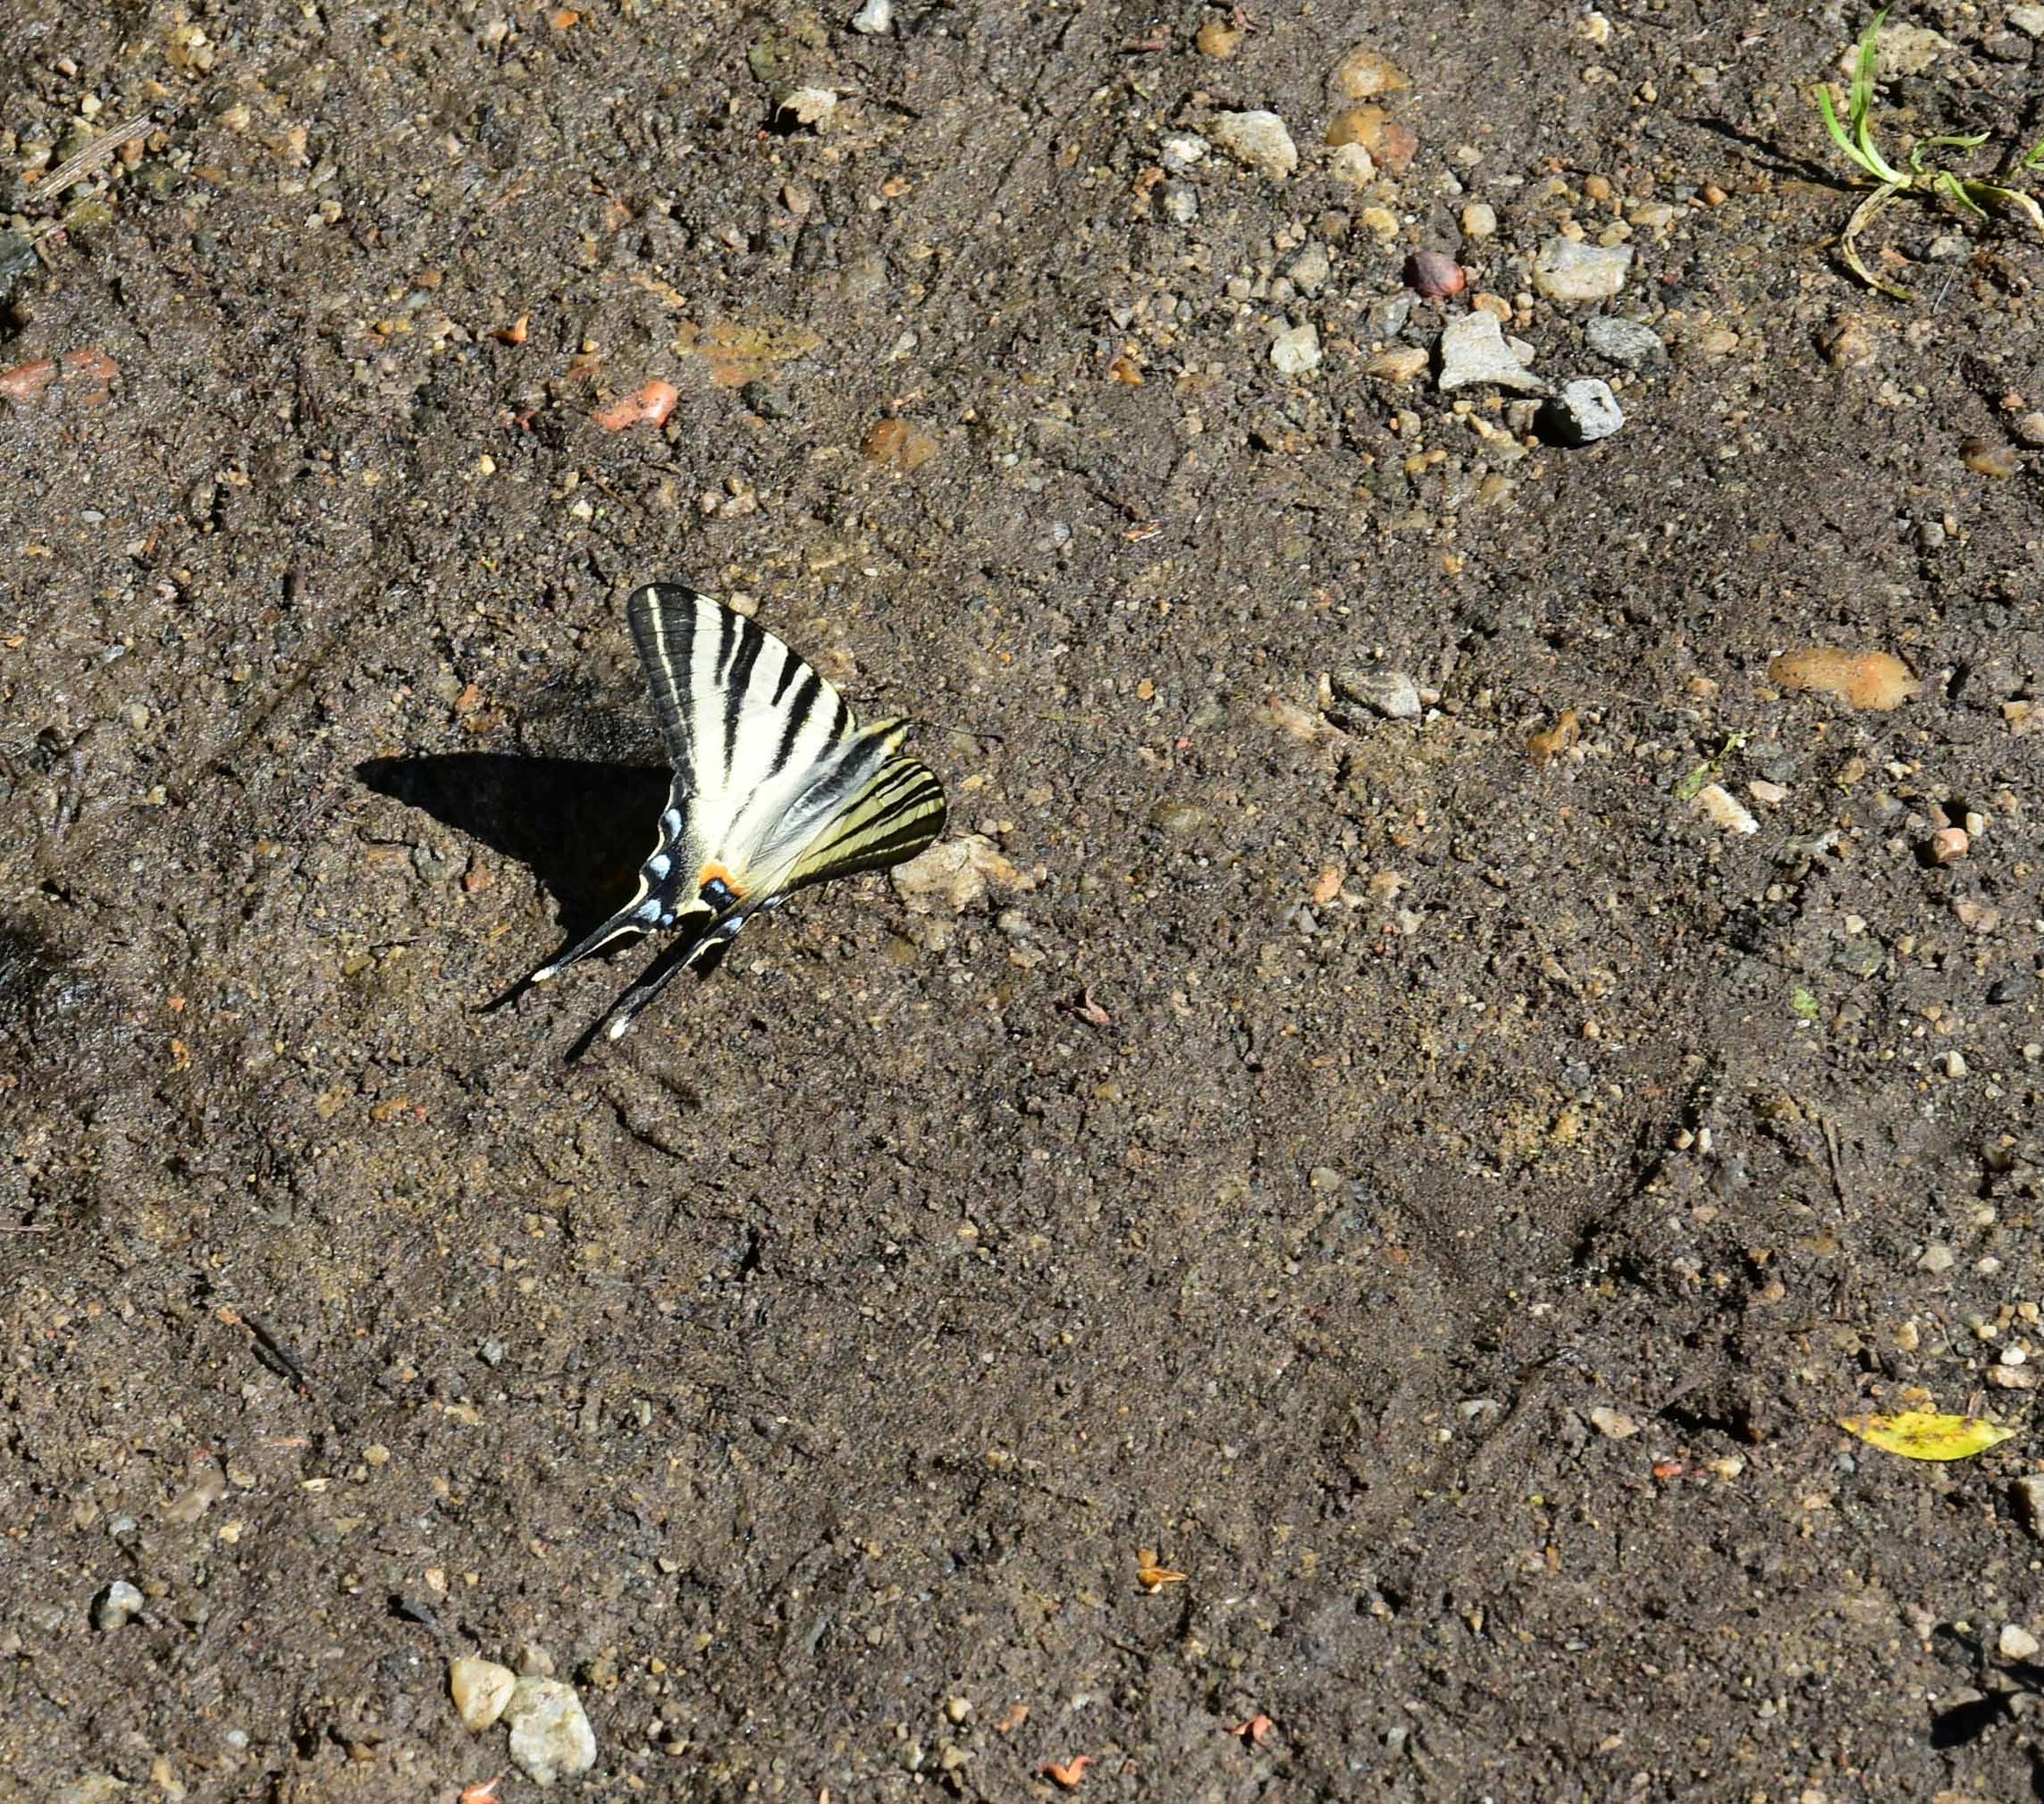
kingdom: Animalia
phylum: Arthropoda
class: Insecta
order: Lepidoptera
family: Papilionidae
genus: Iphiclides
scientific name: Iphiclides podalirius
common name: Scarce swallowtail
